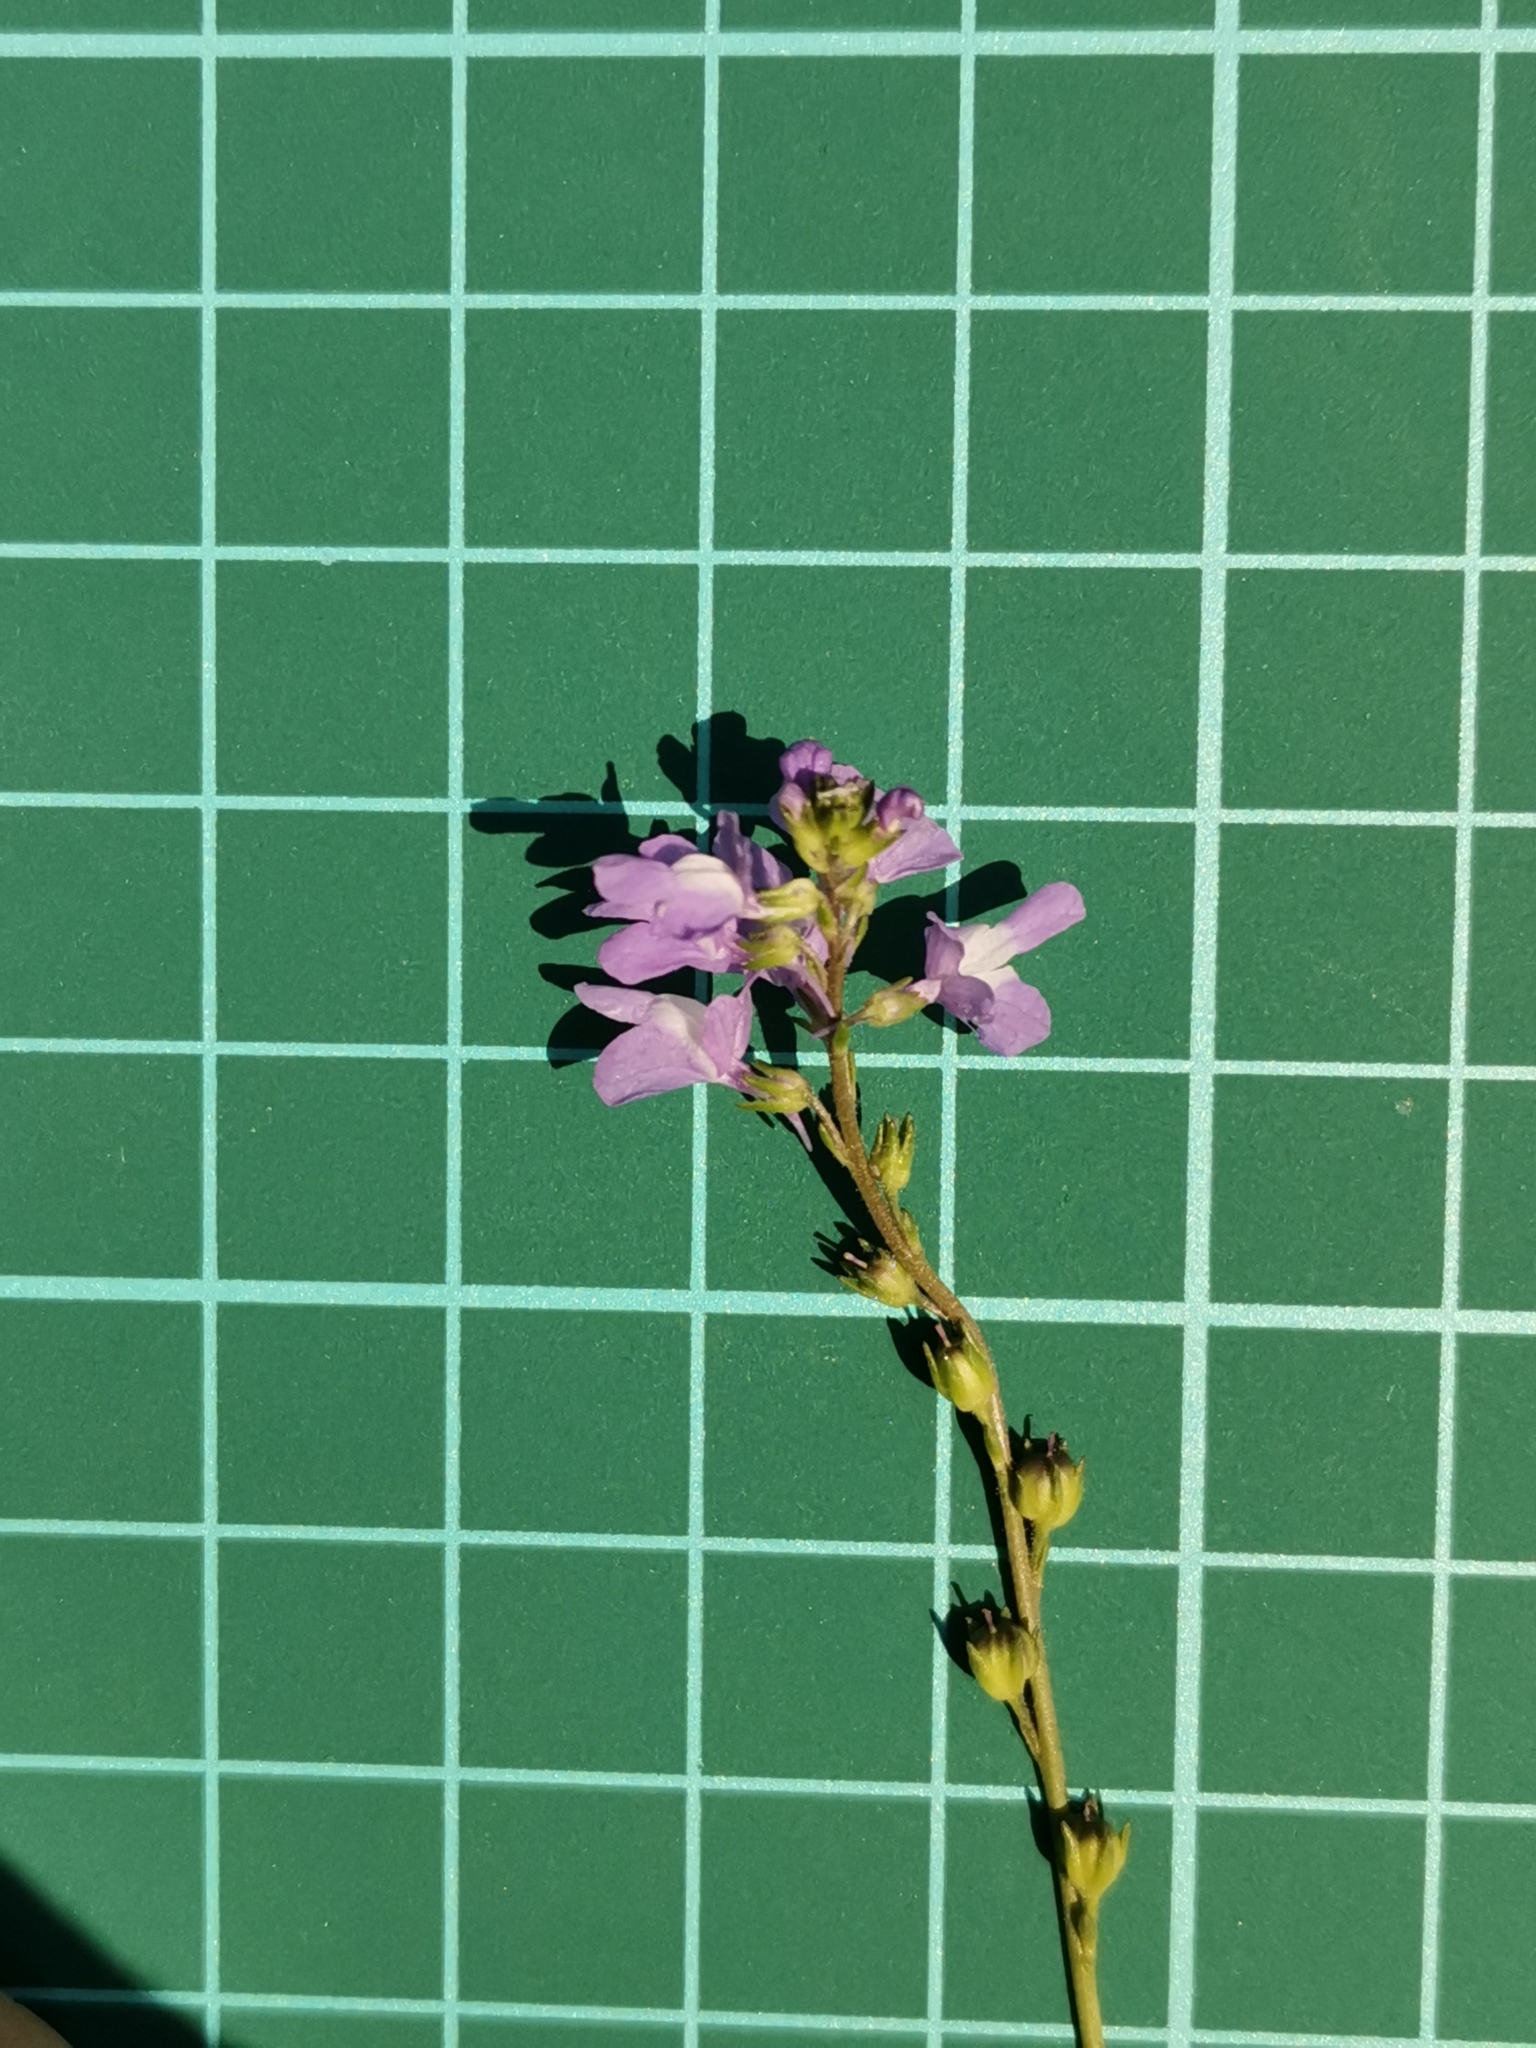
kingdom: Plantae
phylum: Tracheophyta
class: Magnoliopsida
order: Lamiales
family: Plantaginaceae
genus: Nuttallanthus
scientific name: Nuttallanthus canadensis
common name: Blue toadflax
